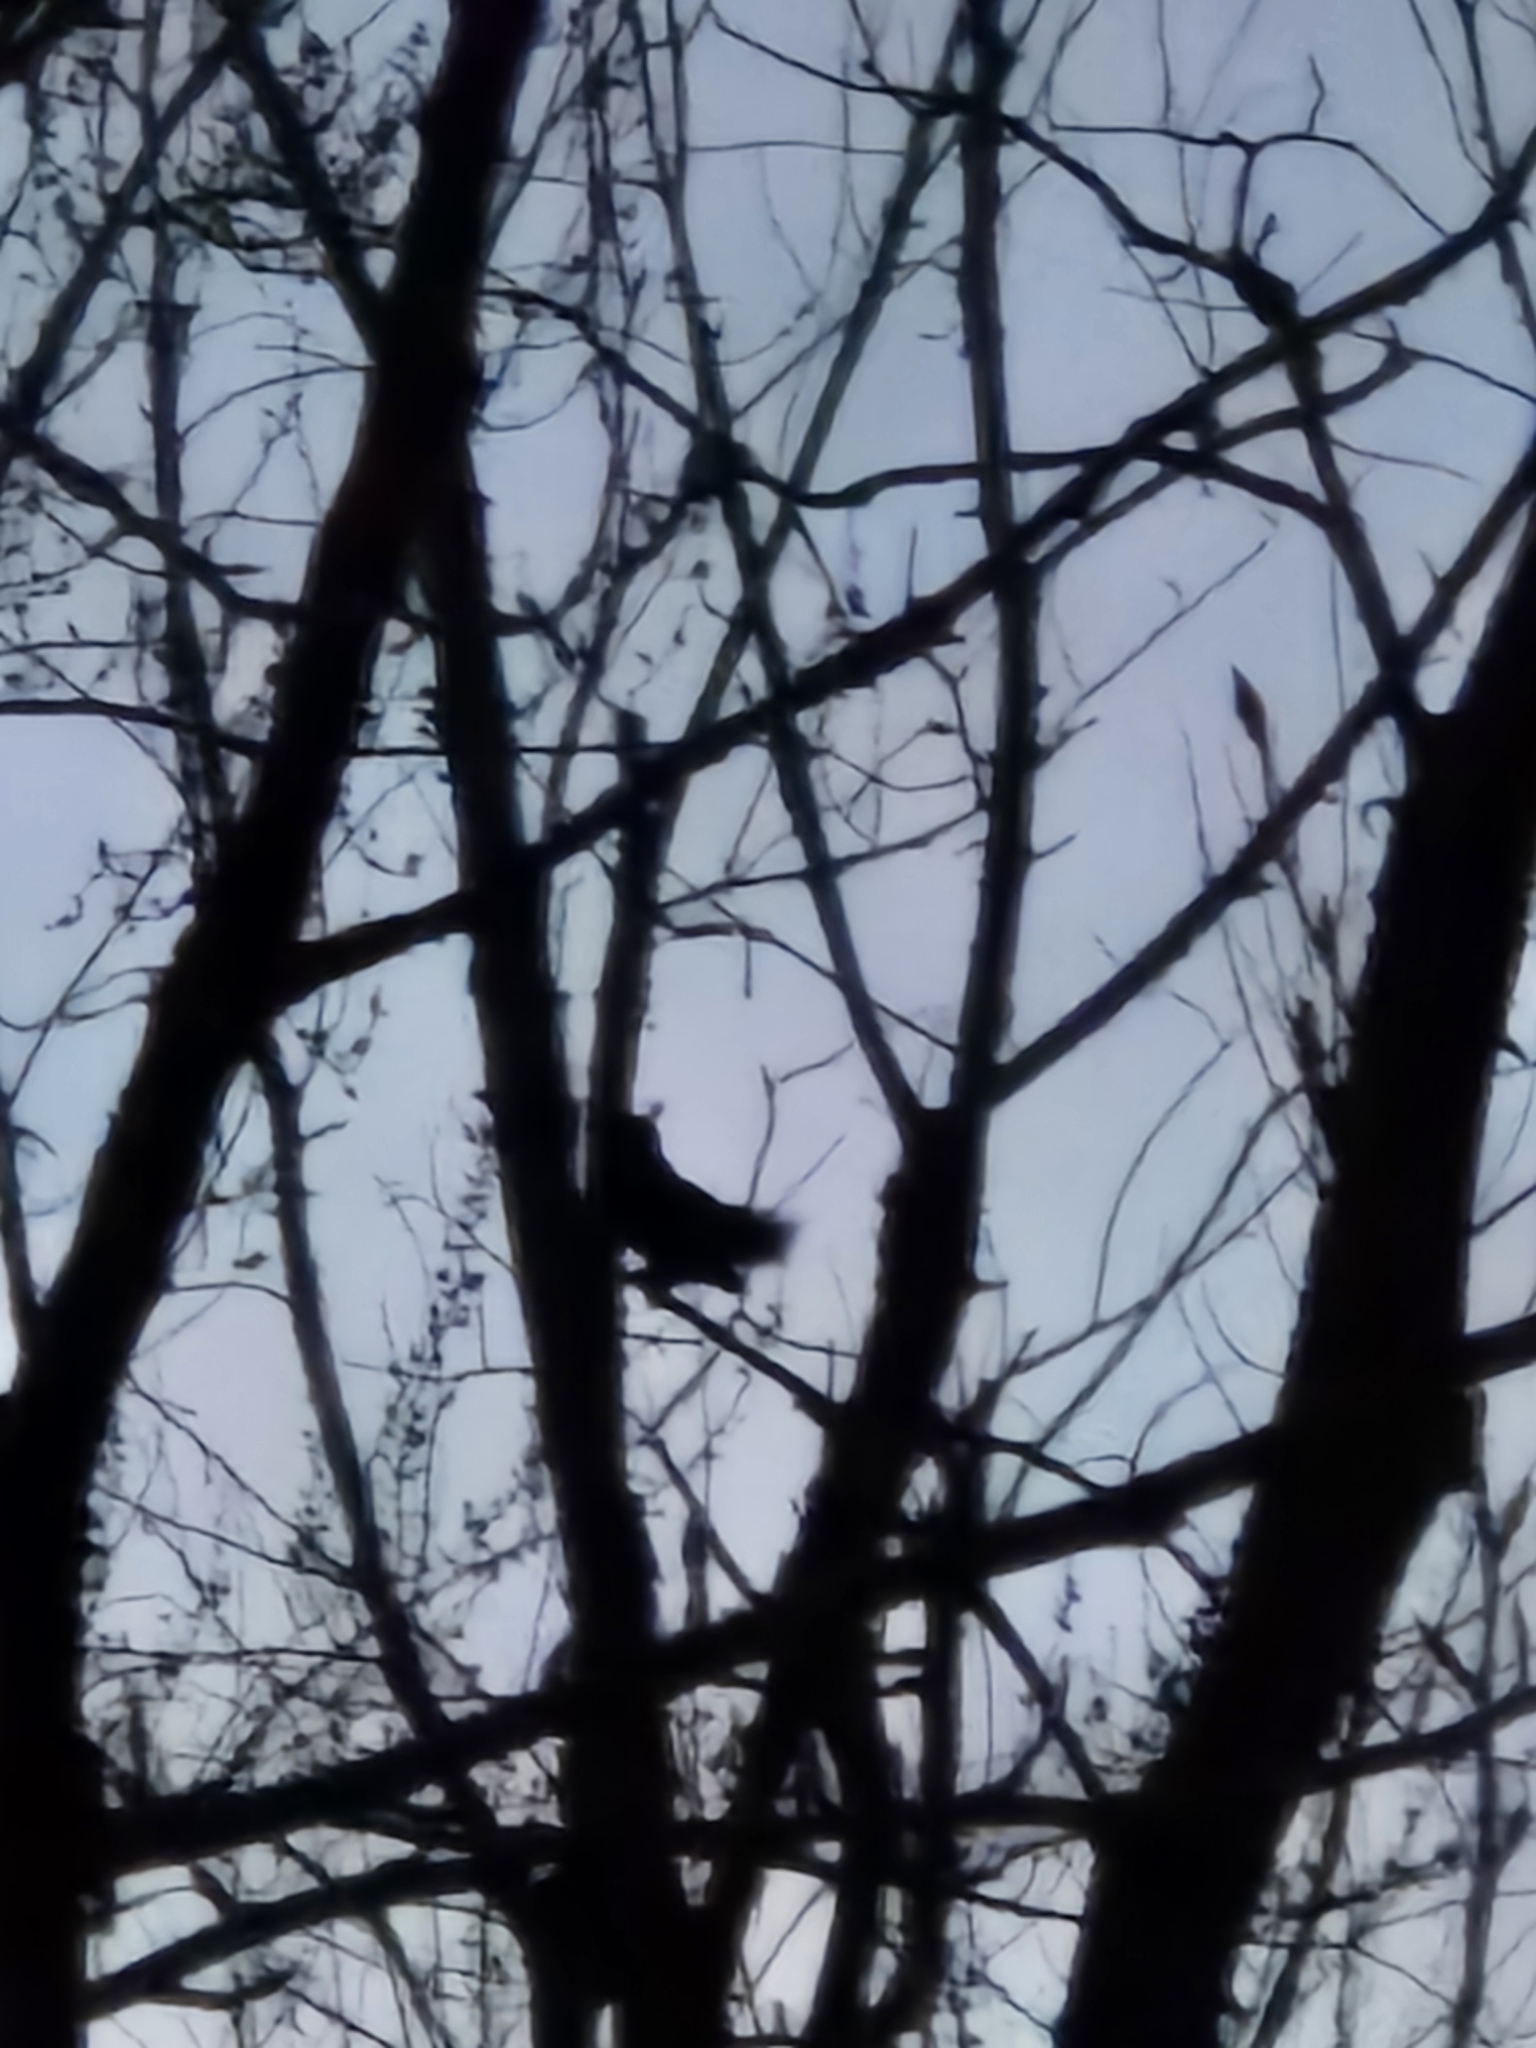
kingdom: Animalia
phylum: Chordata
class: Aves
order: Strigiformes
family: Strigidae
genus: Bubo
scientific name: Bubo virginianus
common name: Great horned owl
